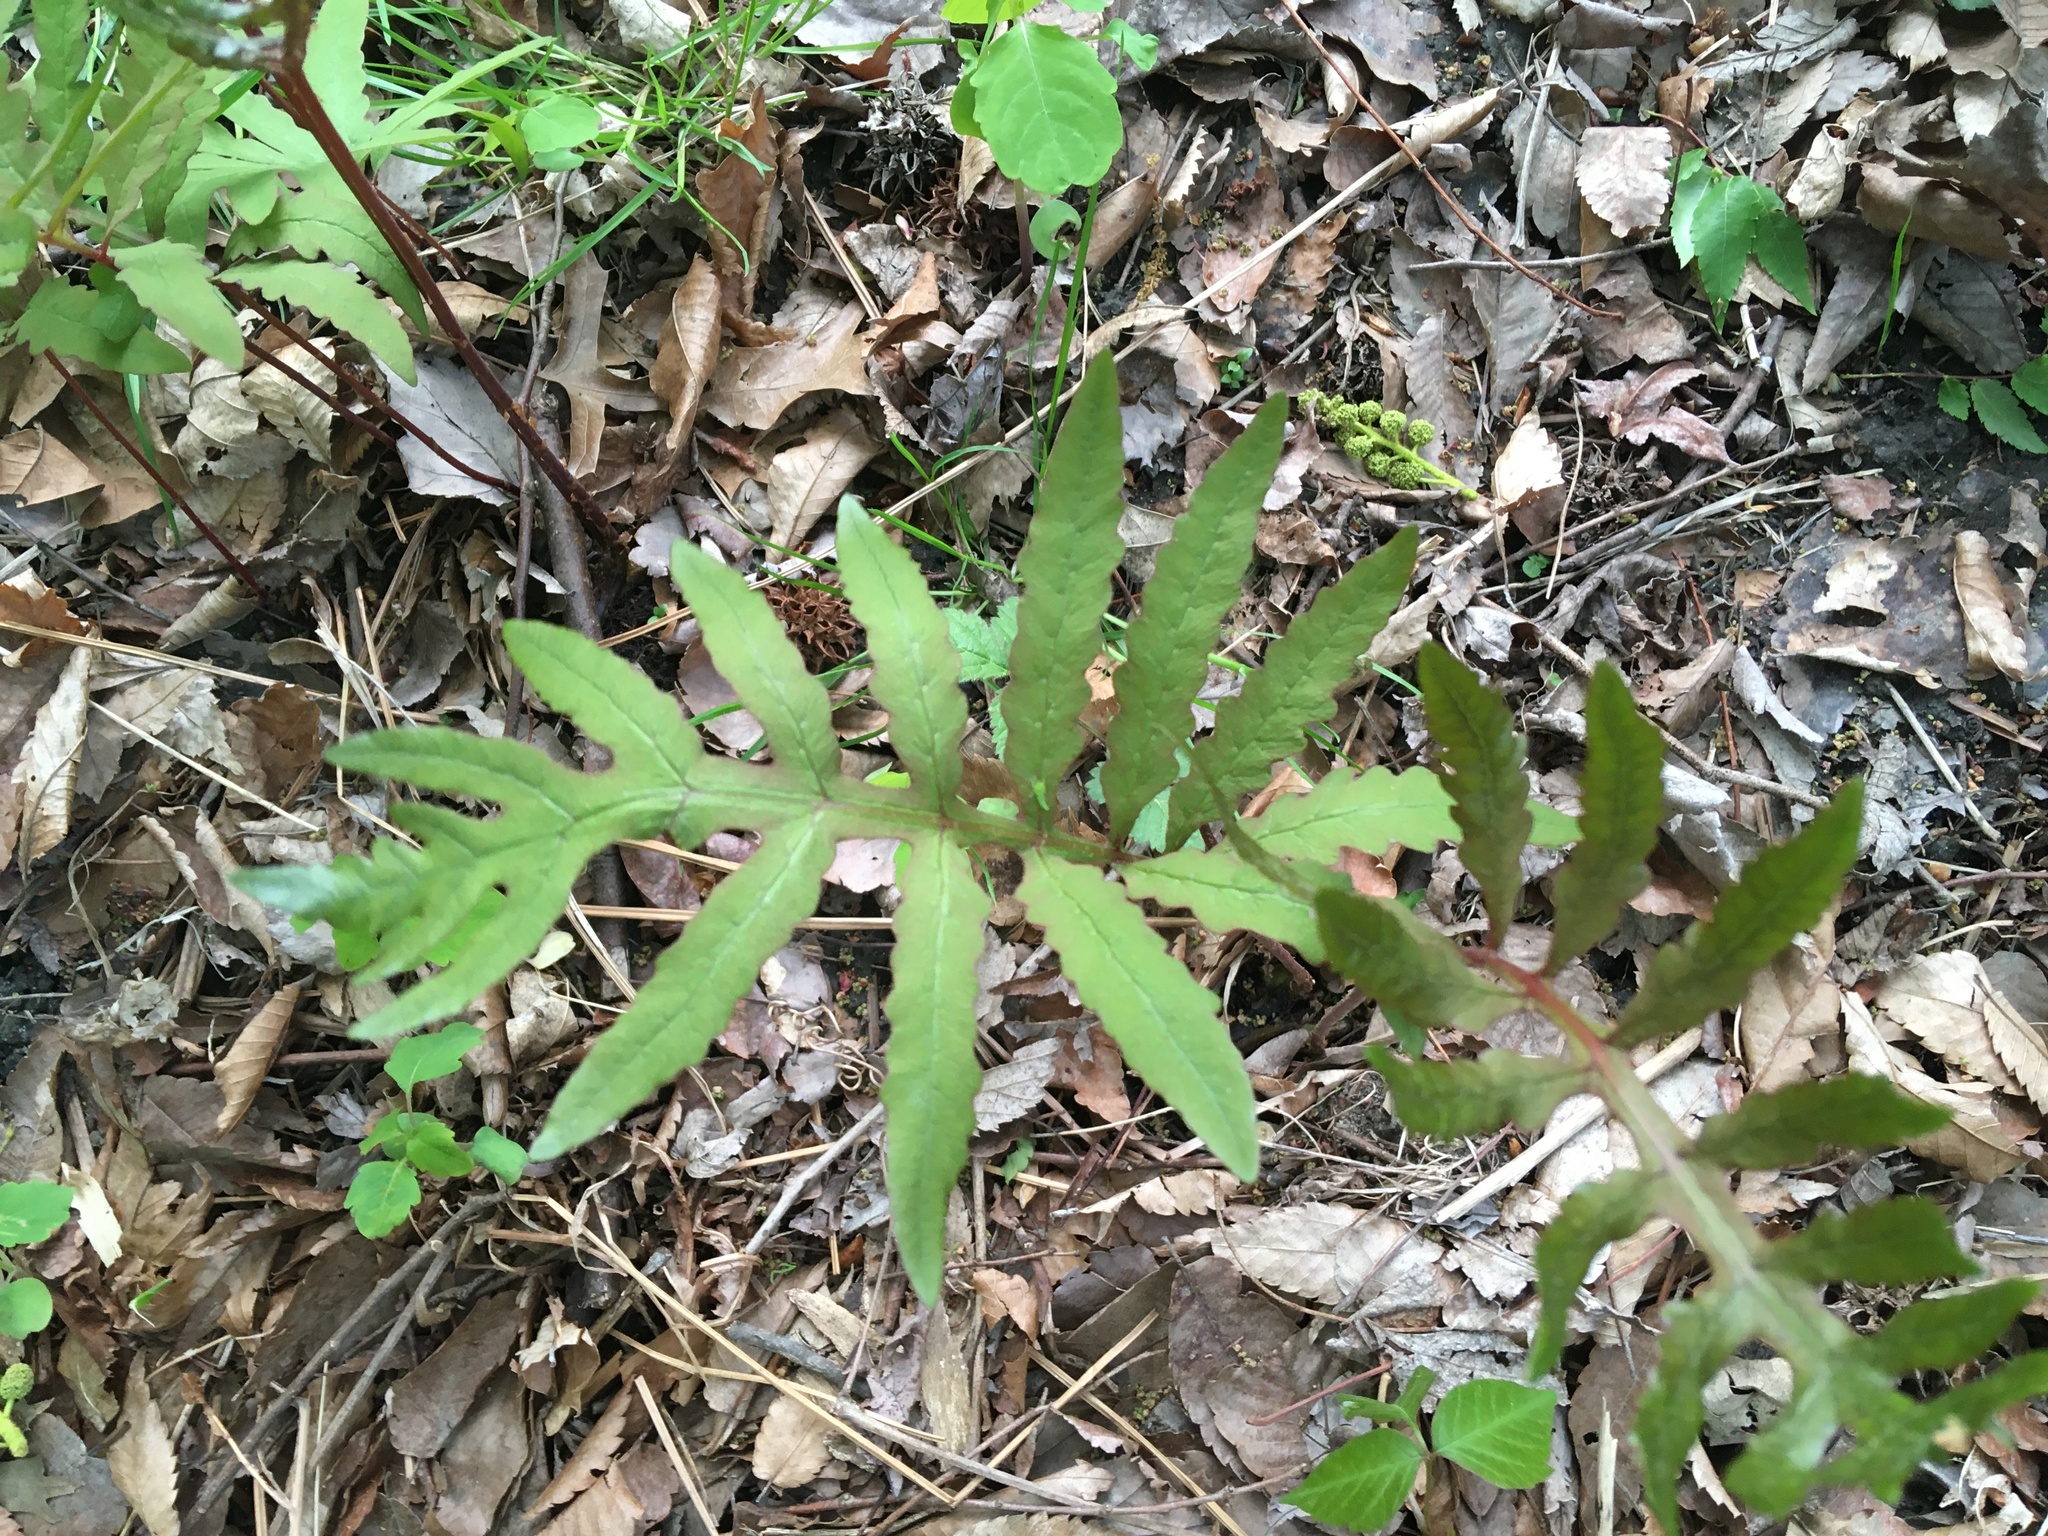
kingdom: Plantae
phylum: Tracheophyta
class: Polypodiopsida
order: Polypodiales
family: Onocleaceae
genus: Onoclea
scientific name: Onoclea sensibilis
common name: Sensitive fern
